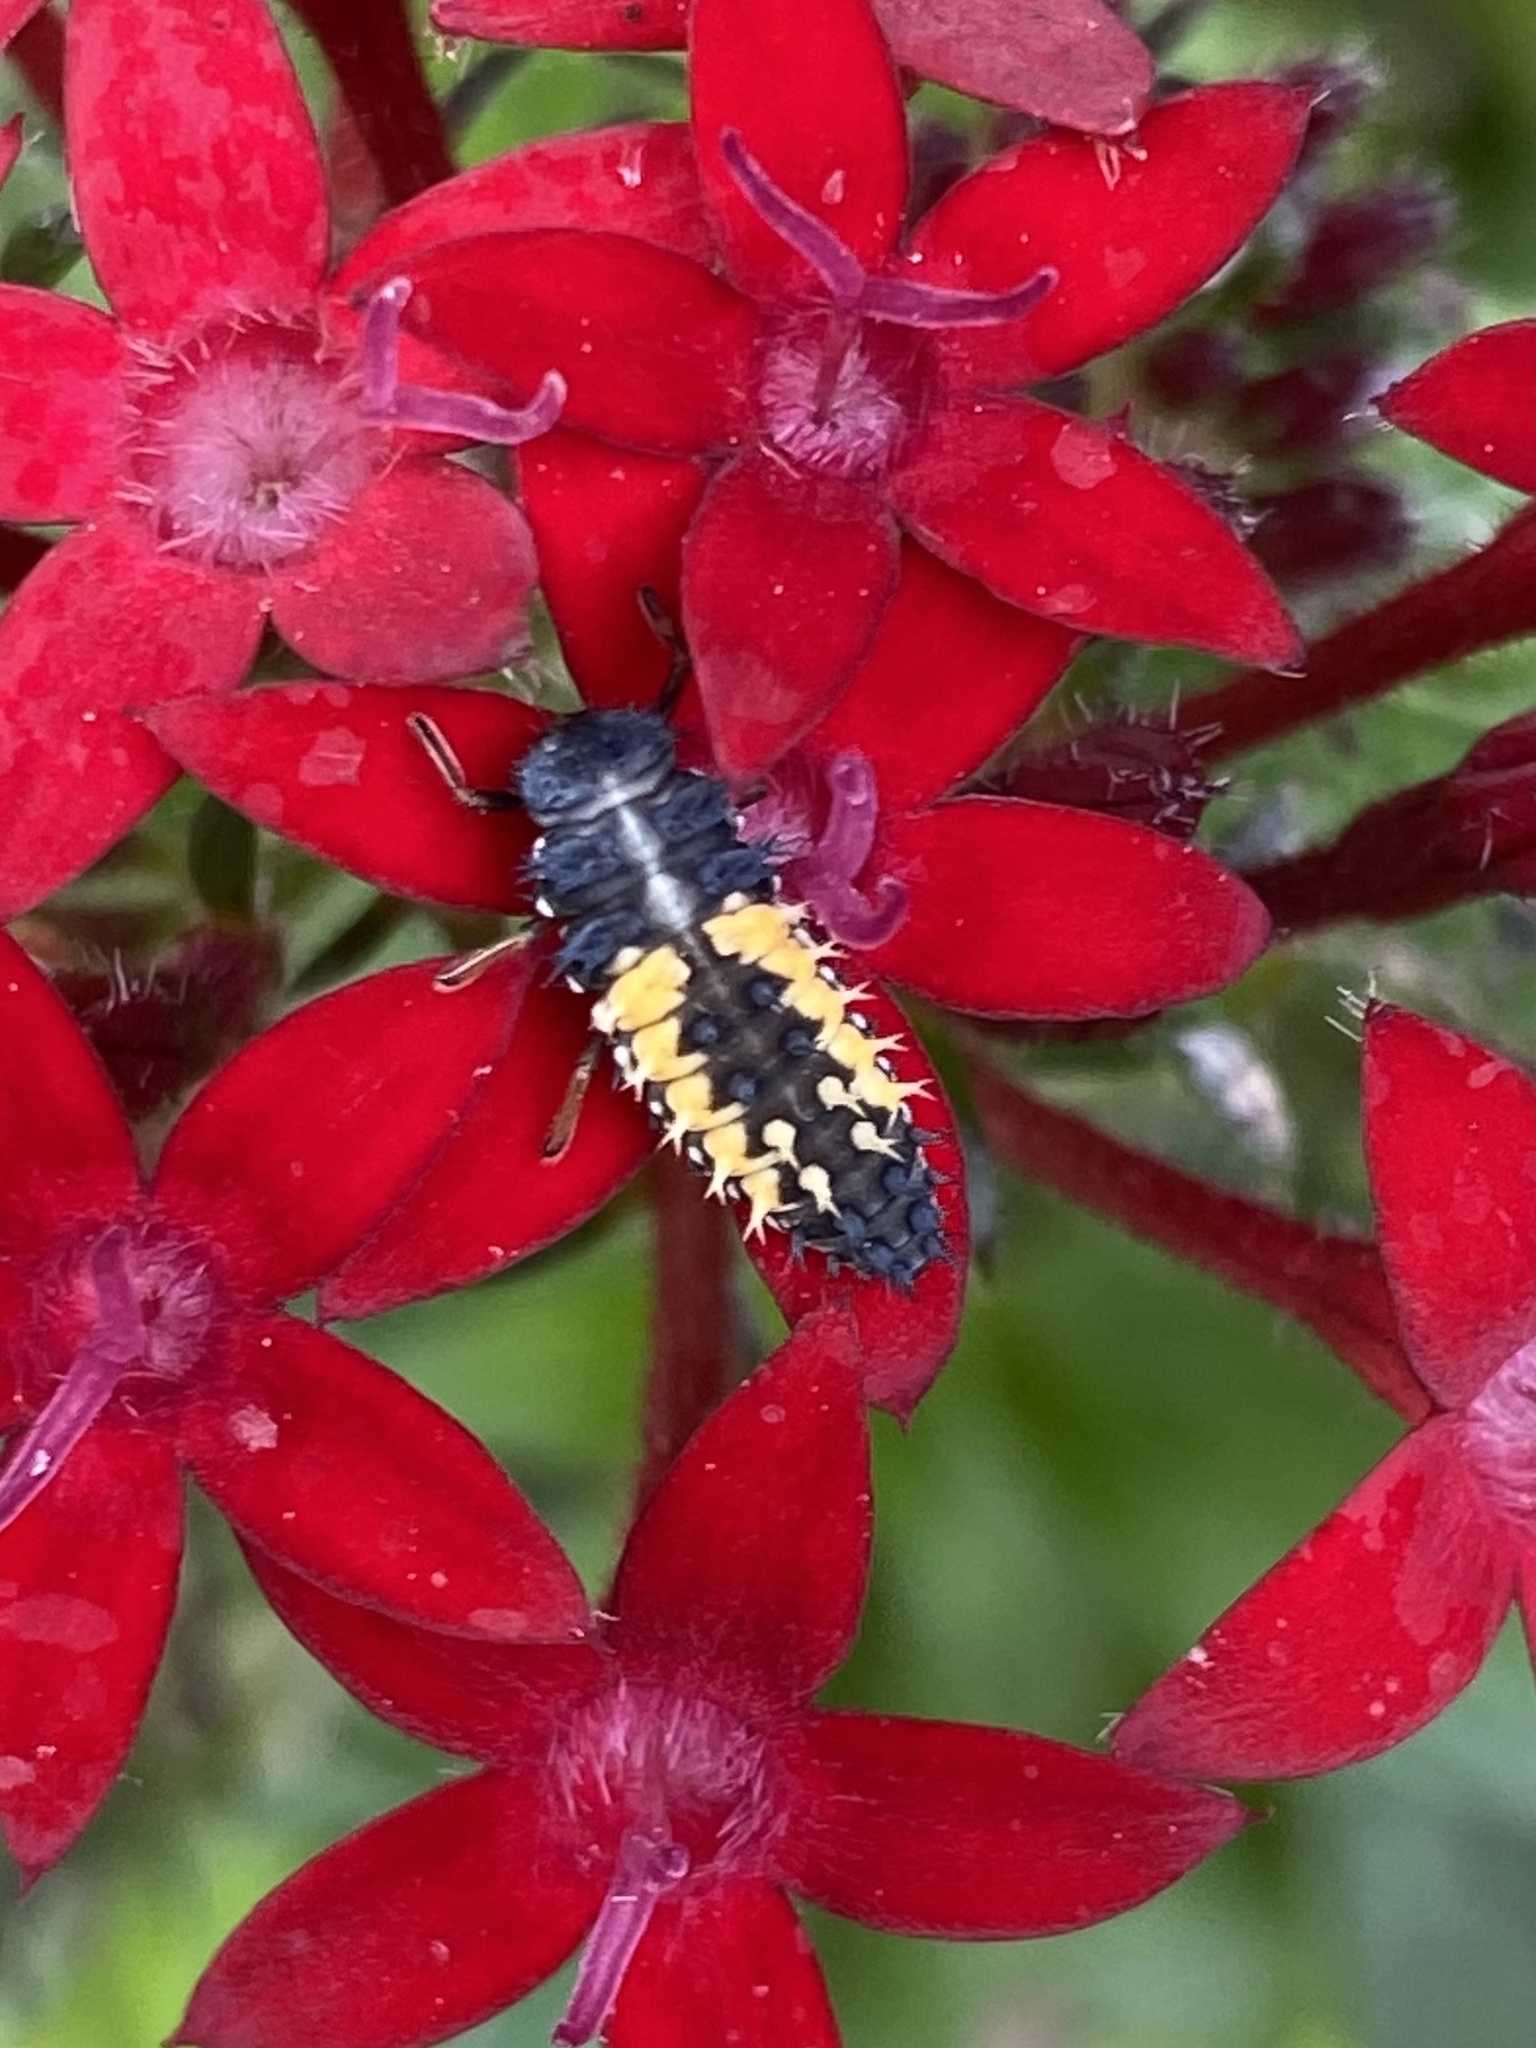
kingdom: Animalia
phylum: Arthropoda
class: Insecta
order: Coleoptera
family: Coccinellidae
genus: Harmonia
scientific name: Harmonia axyridis
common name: Harlequin ladybird
